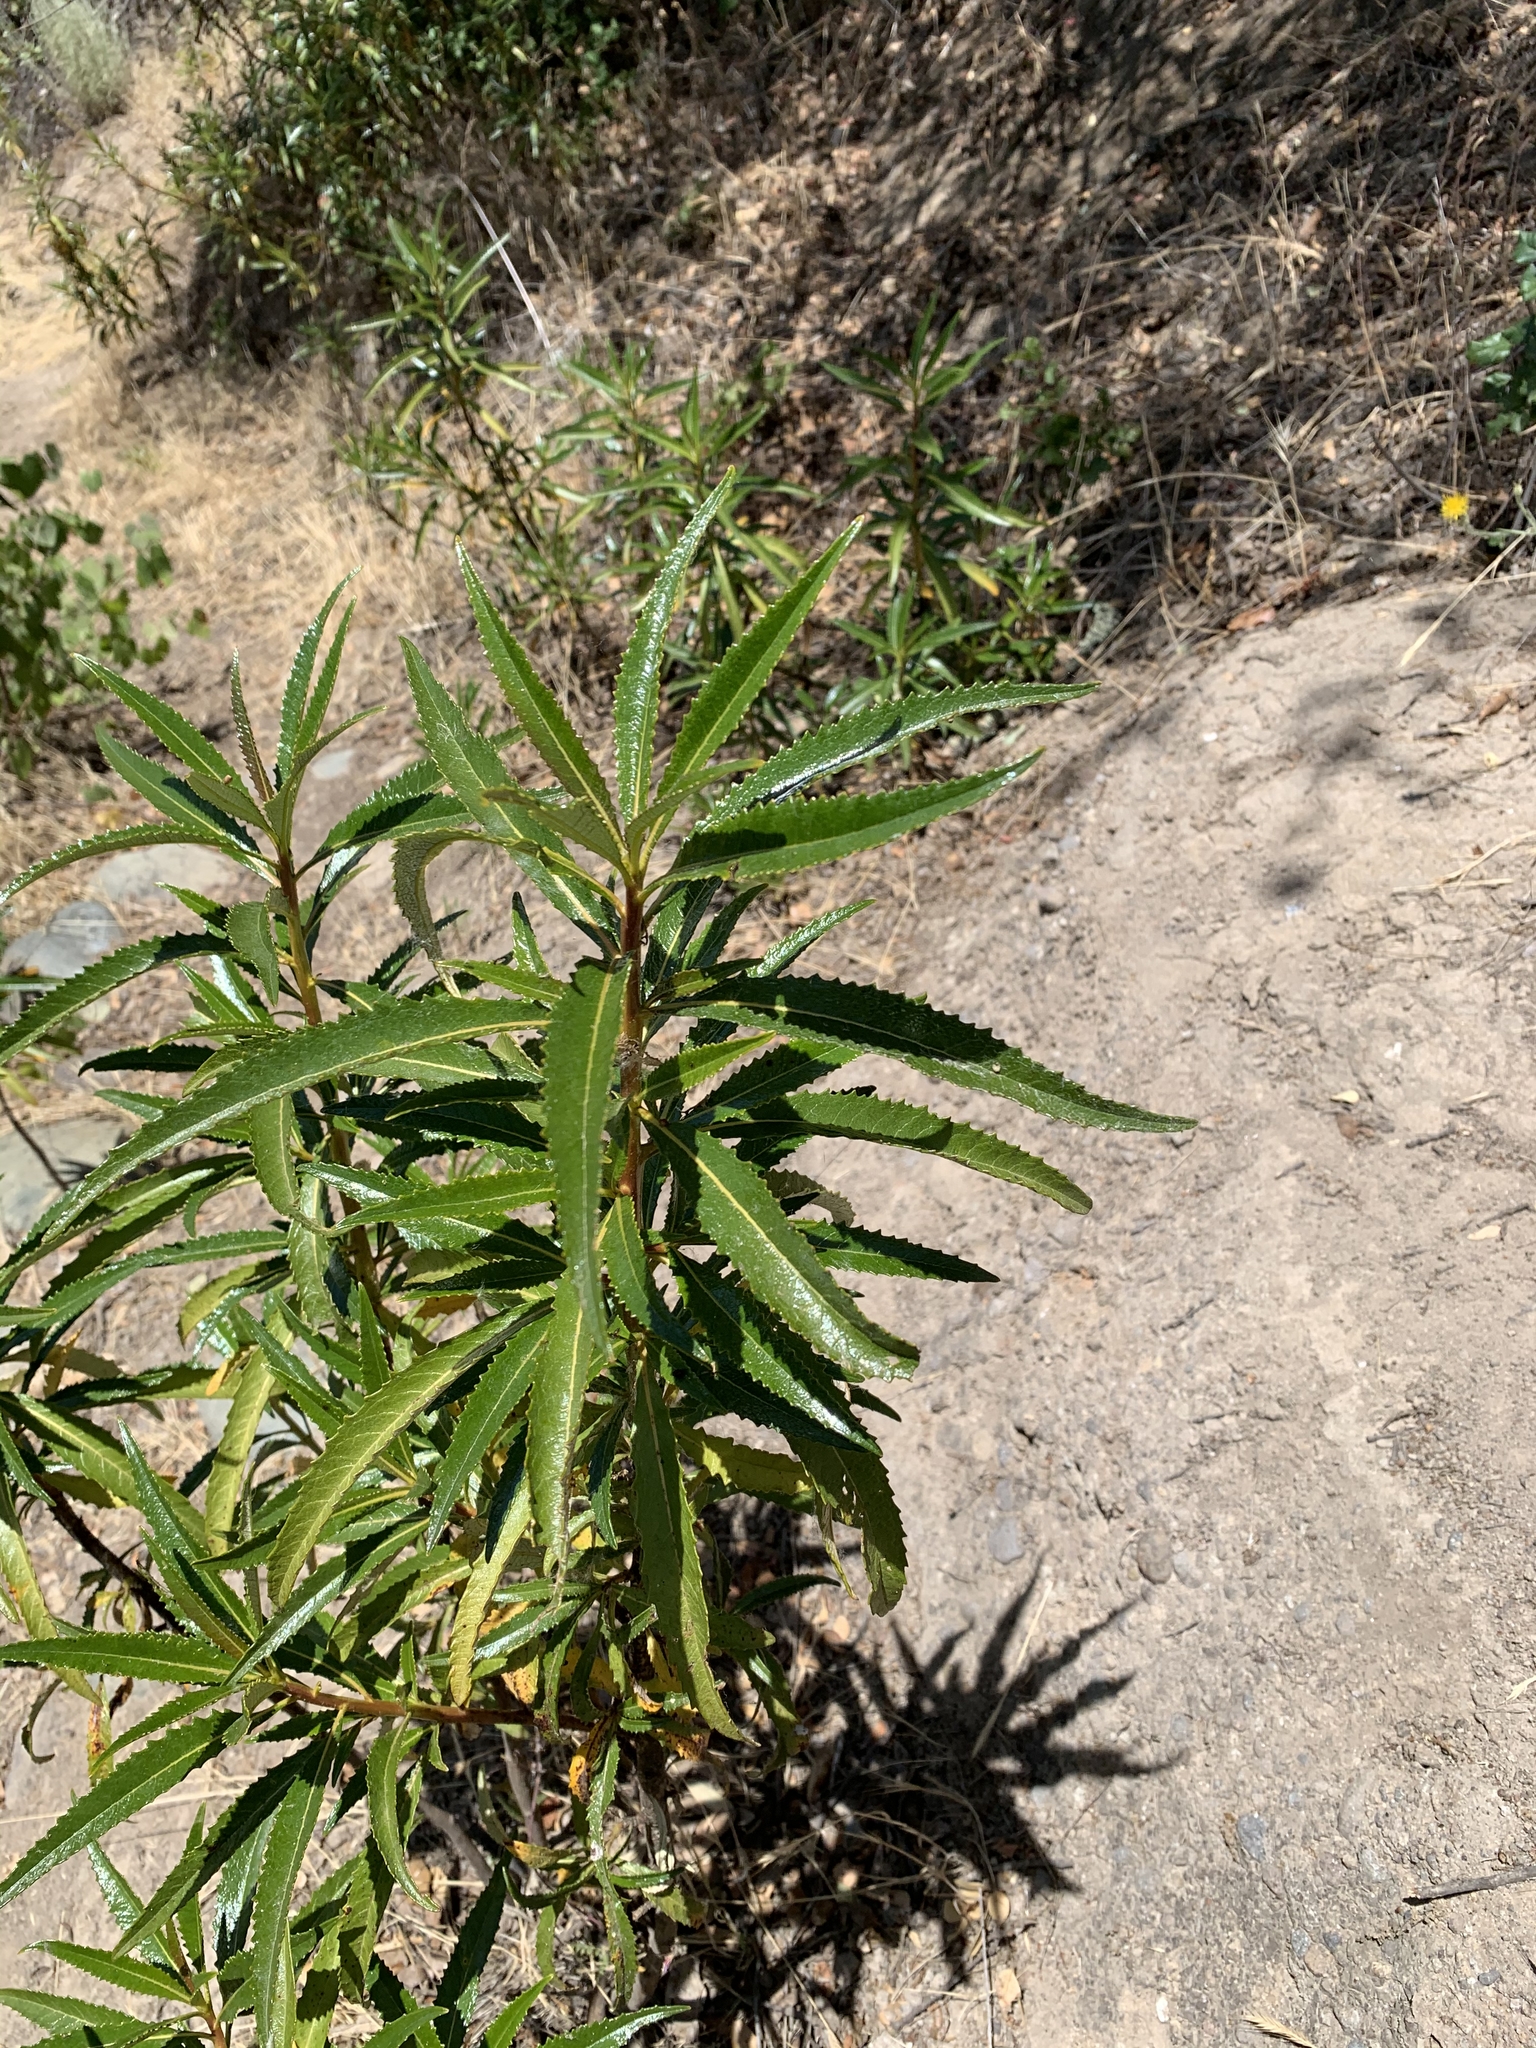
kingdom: Plantae
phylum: Tracheophyta
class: Magnoliopsida
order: Boraginales
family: Namaceae
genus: Eriodictyon
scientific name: Eriodictyon californicum
